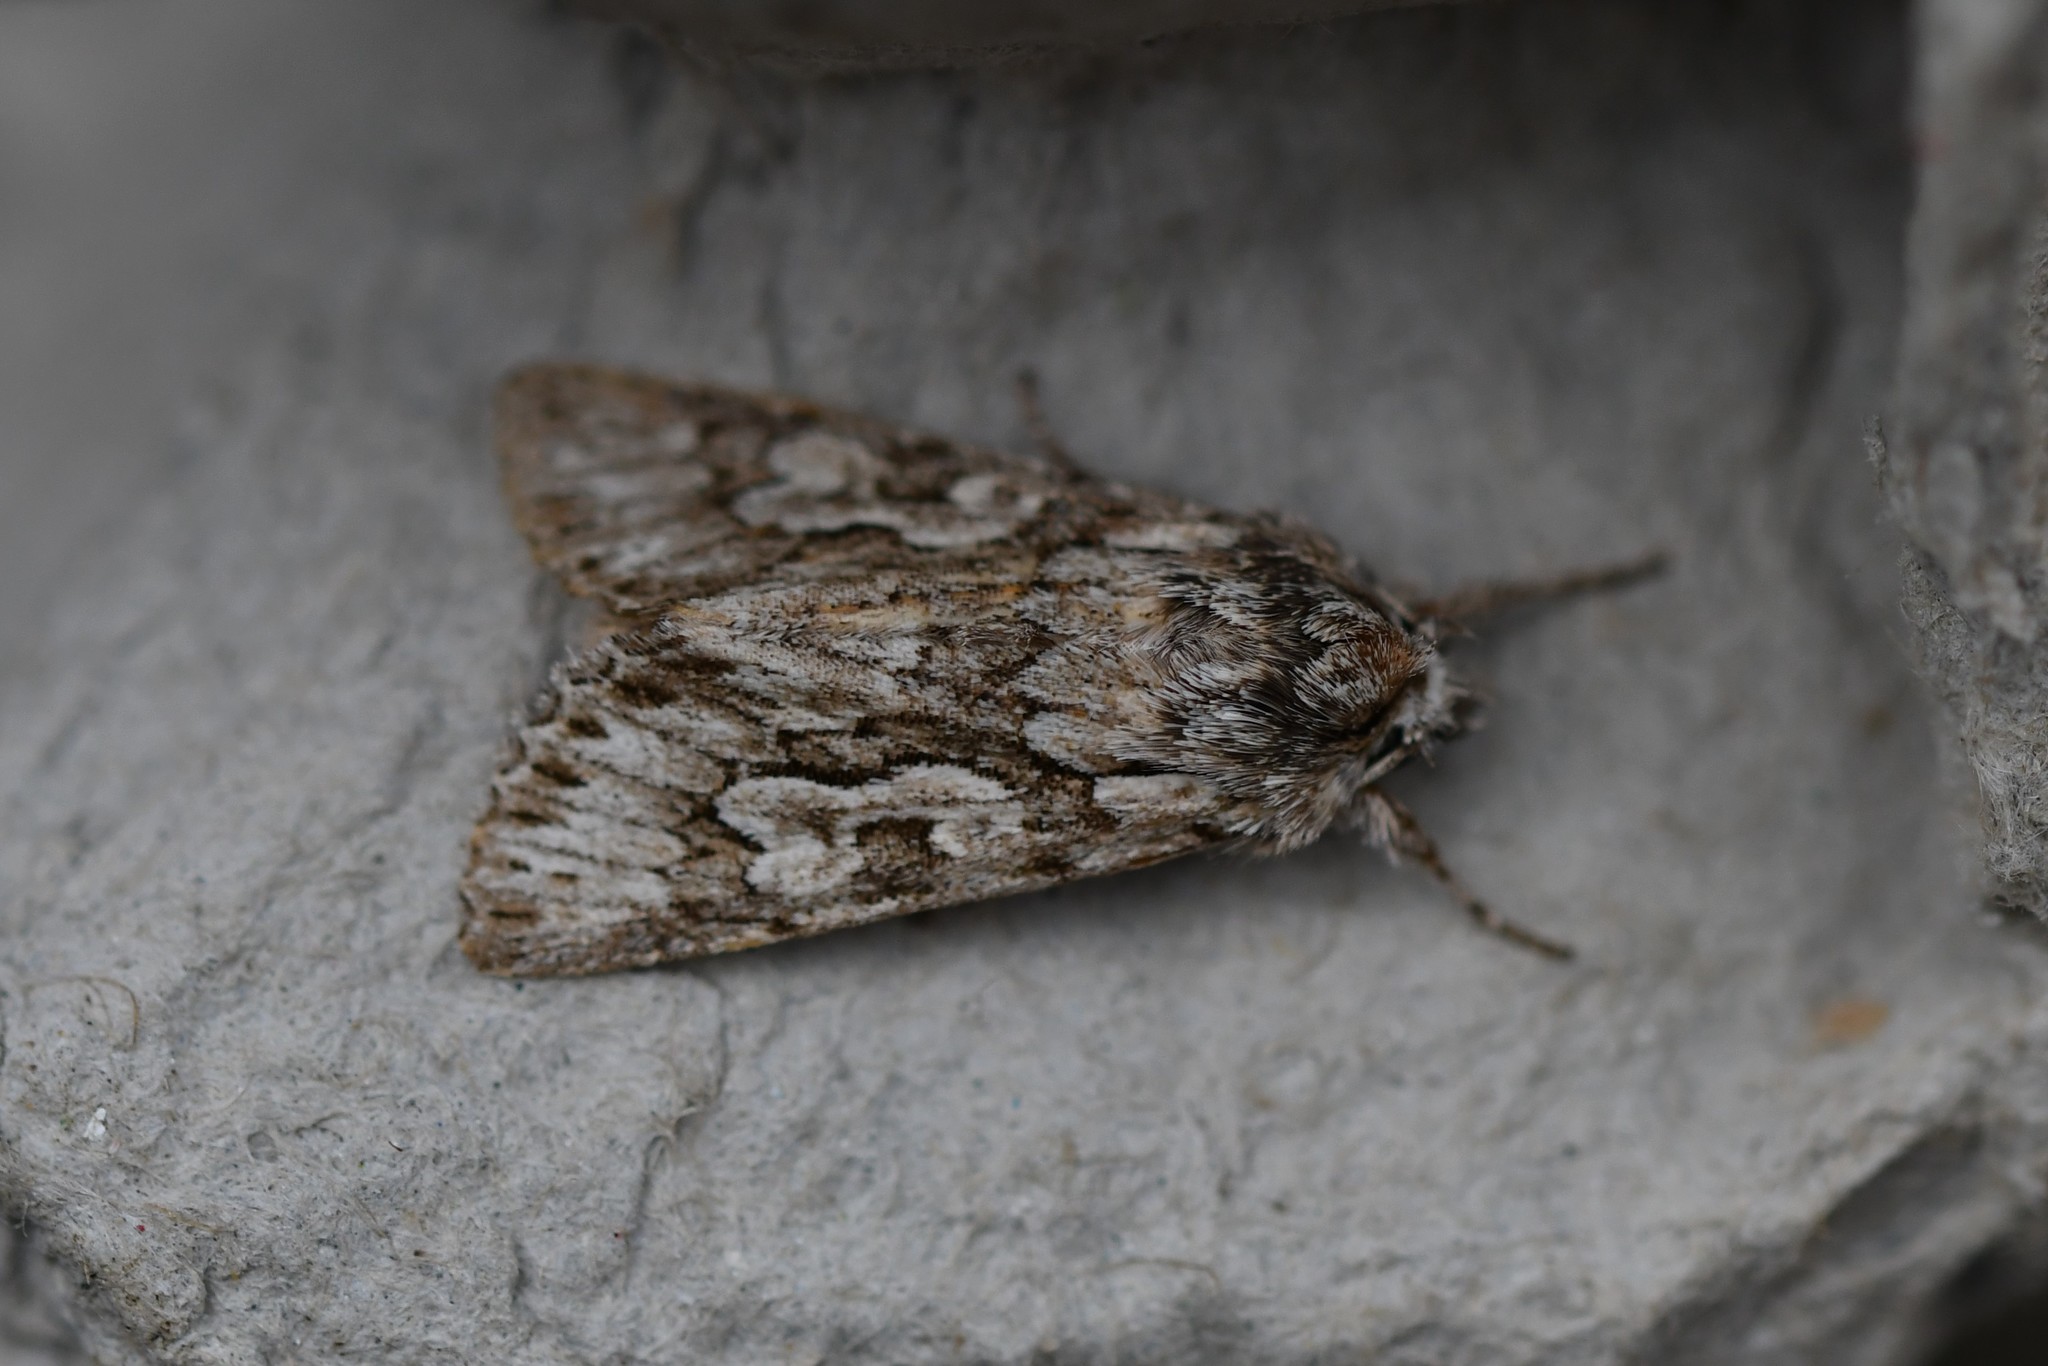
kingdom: Animalia
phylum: Arthropoda
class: Insecta
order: Lepidoptera
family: Noctuidae
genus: Xylocampa
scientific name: Xylocampa areola
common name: Early grey
